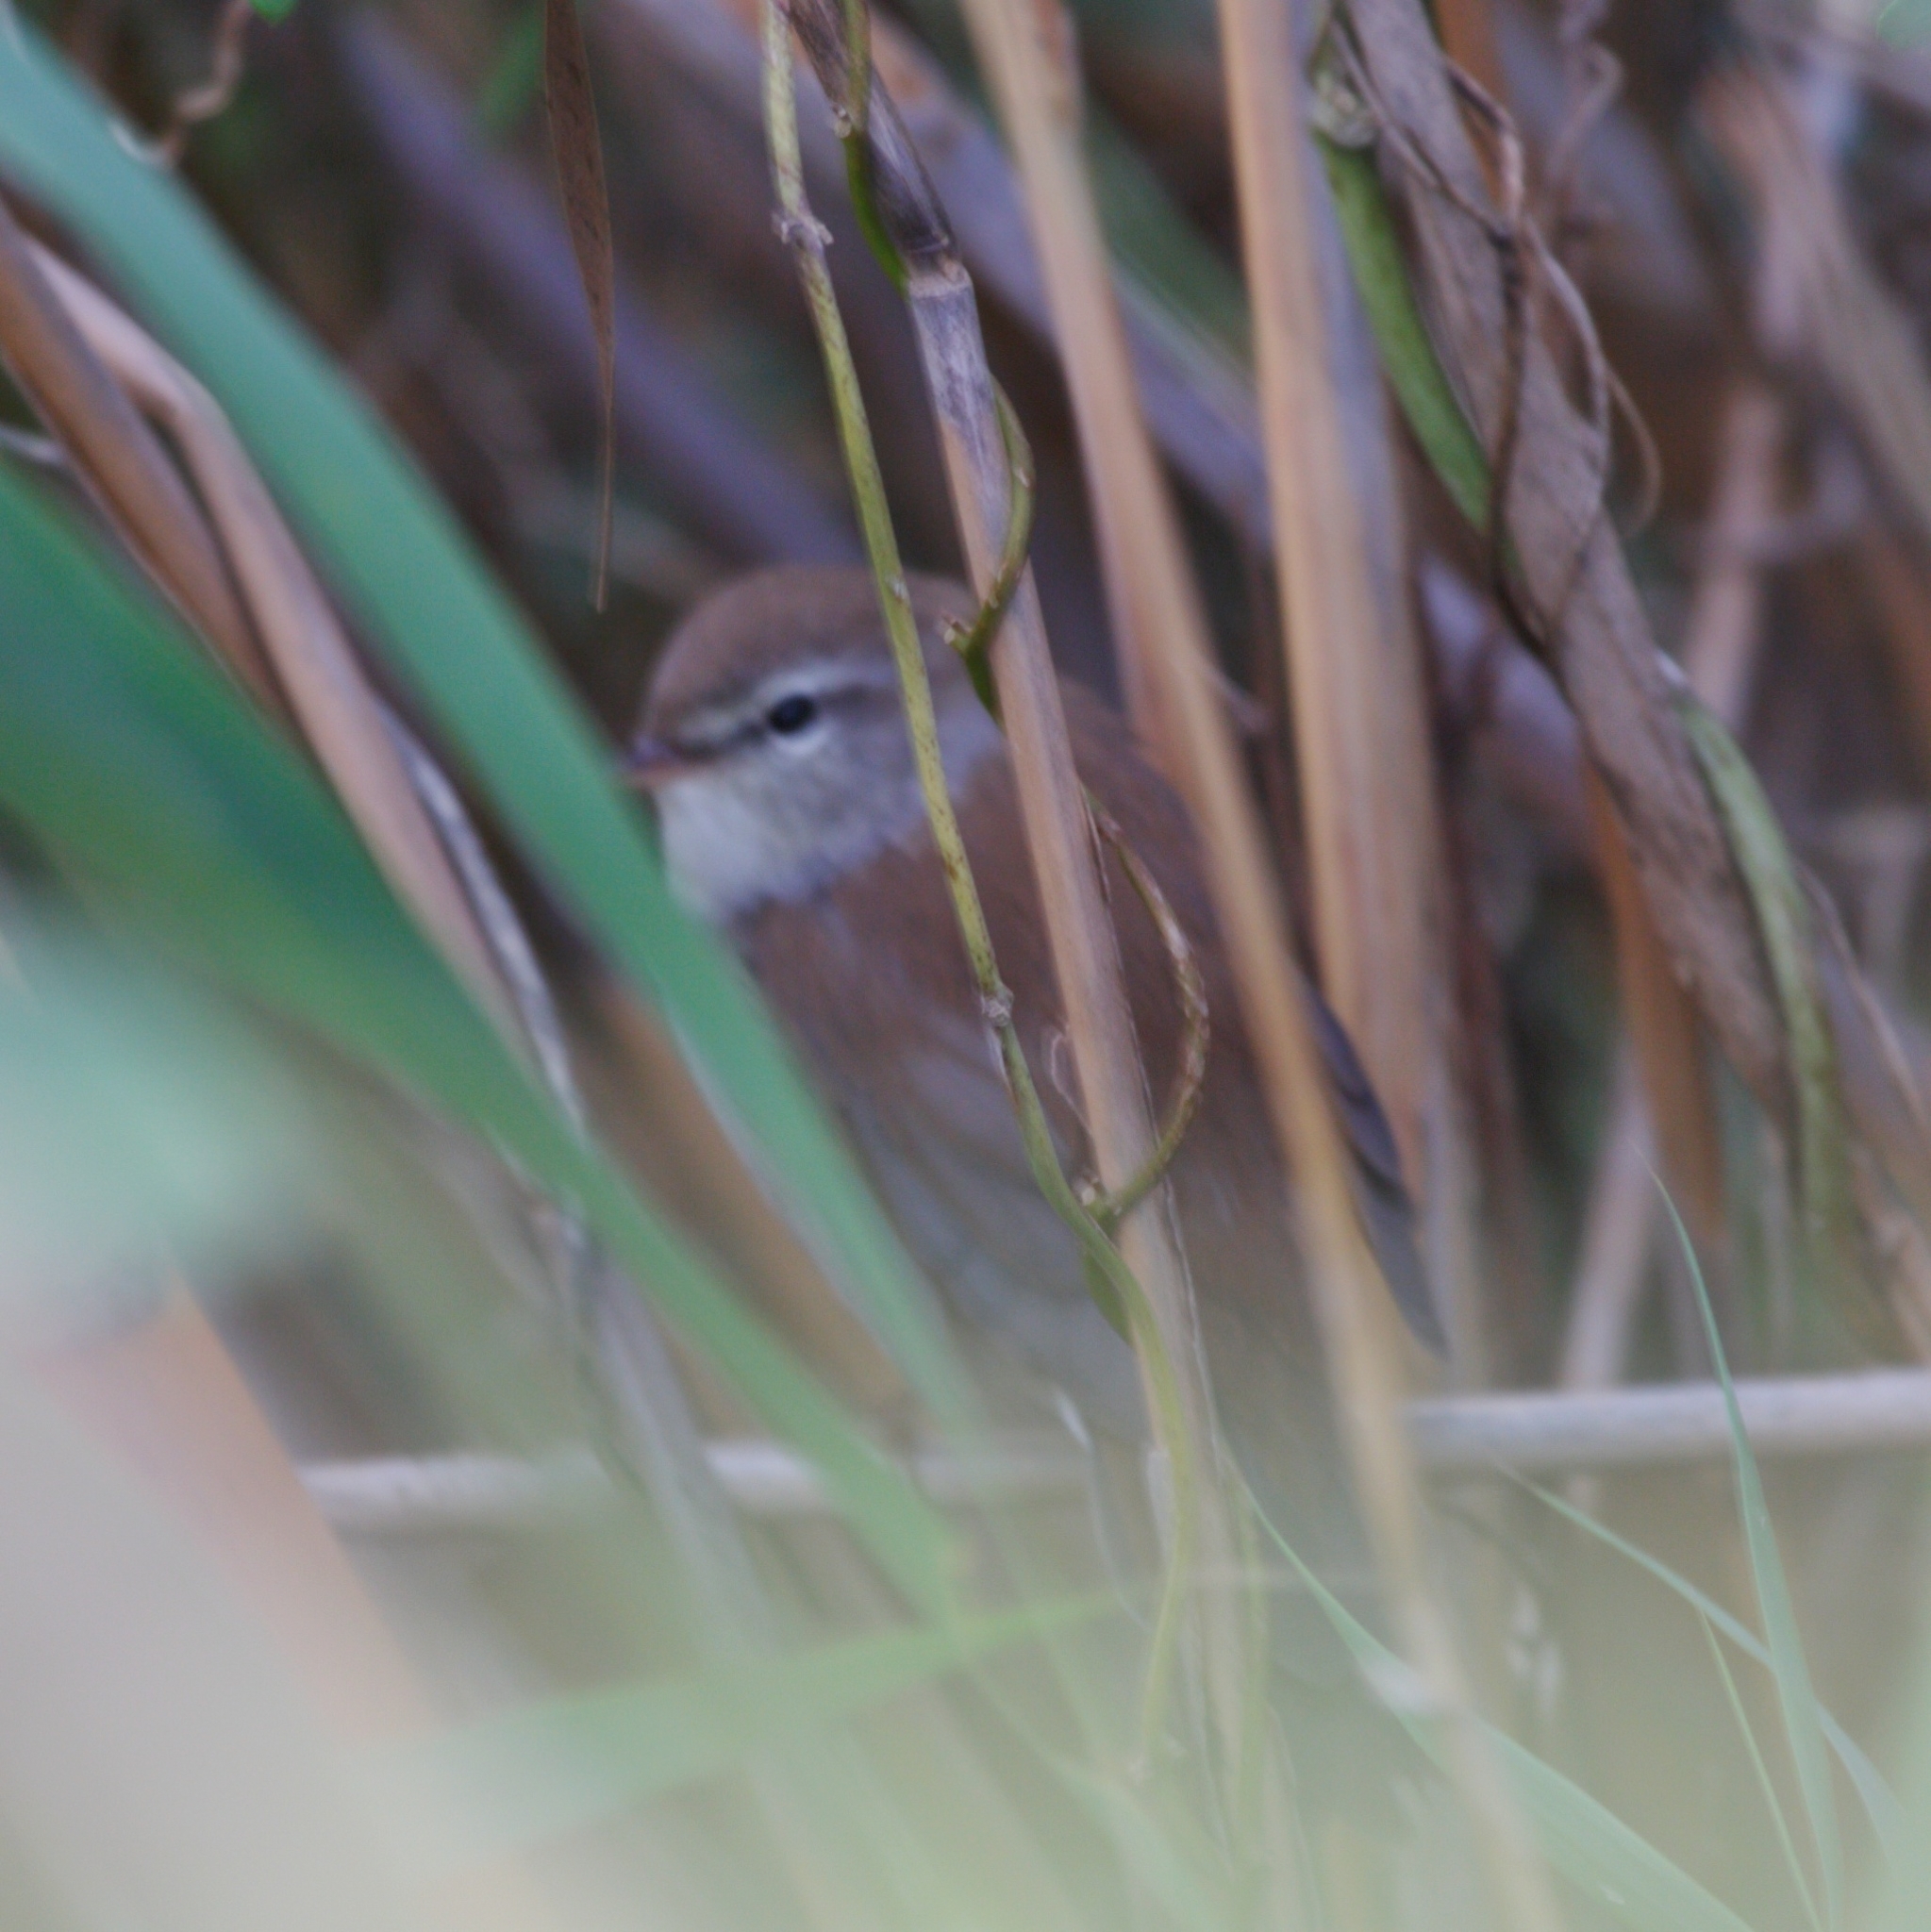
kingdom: Animalia
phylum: Chordata
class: Aves
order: Passeriformes
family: Cettiidae
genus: Cettia
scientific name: Cettia cetti
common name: Cetti's warbler
